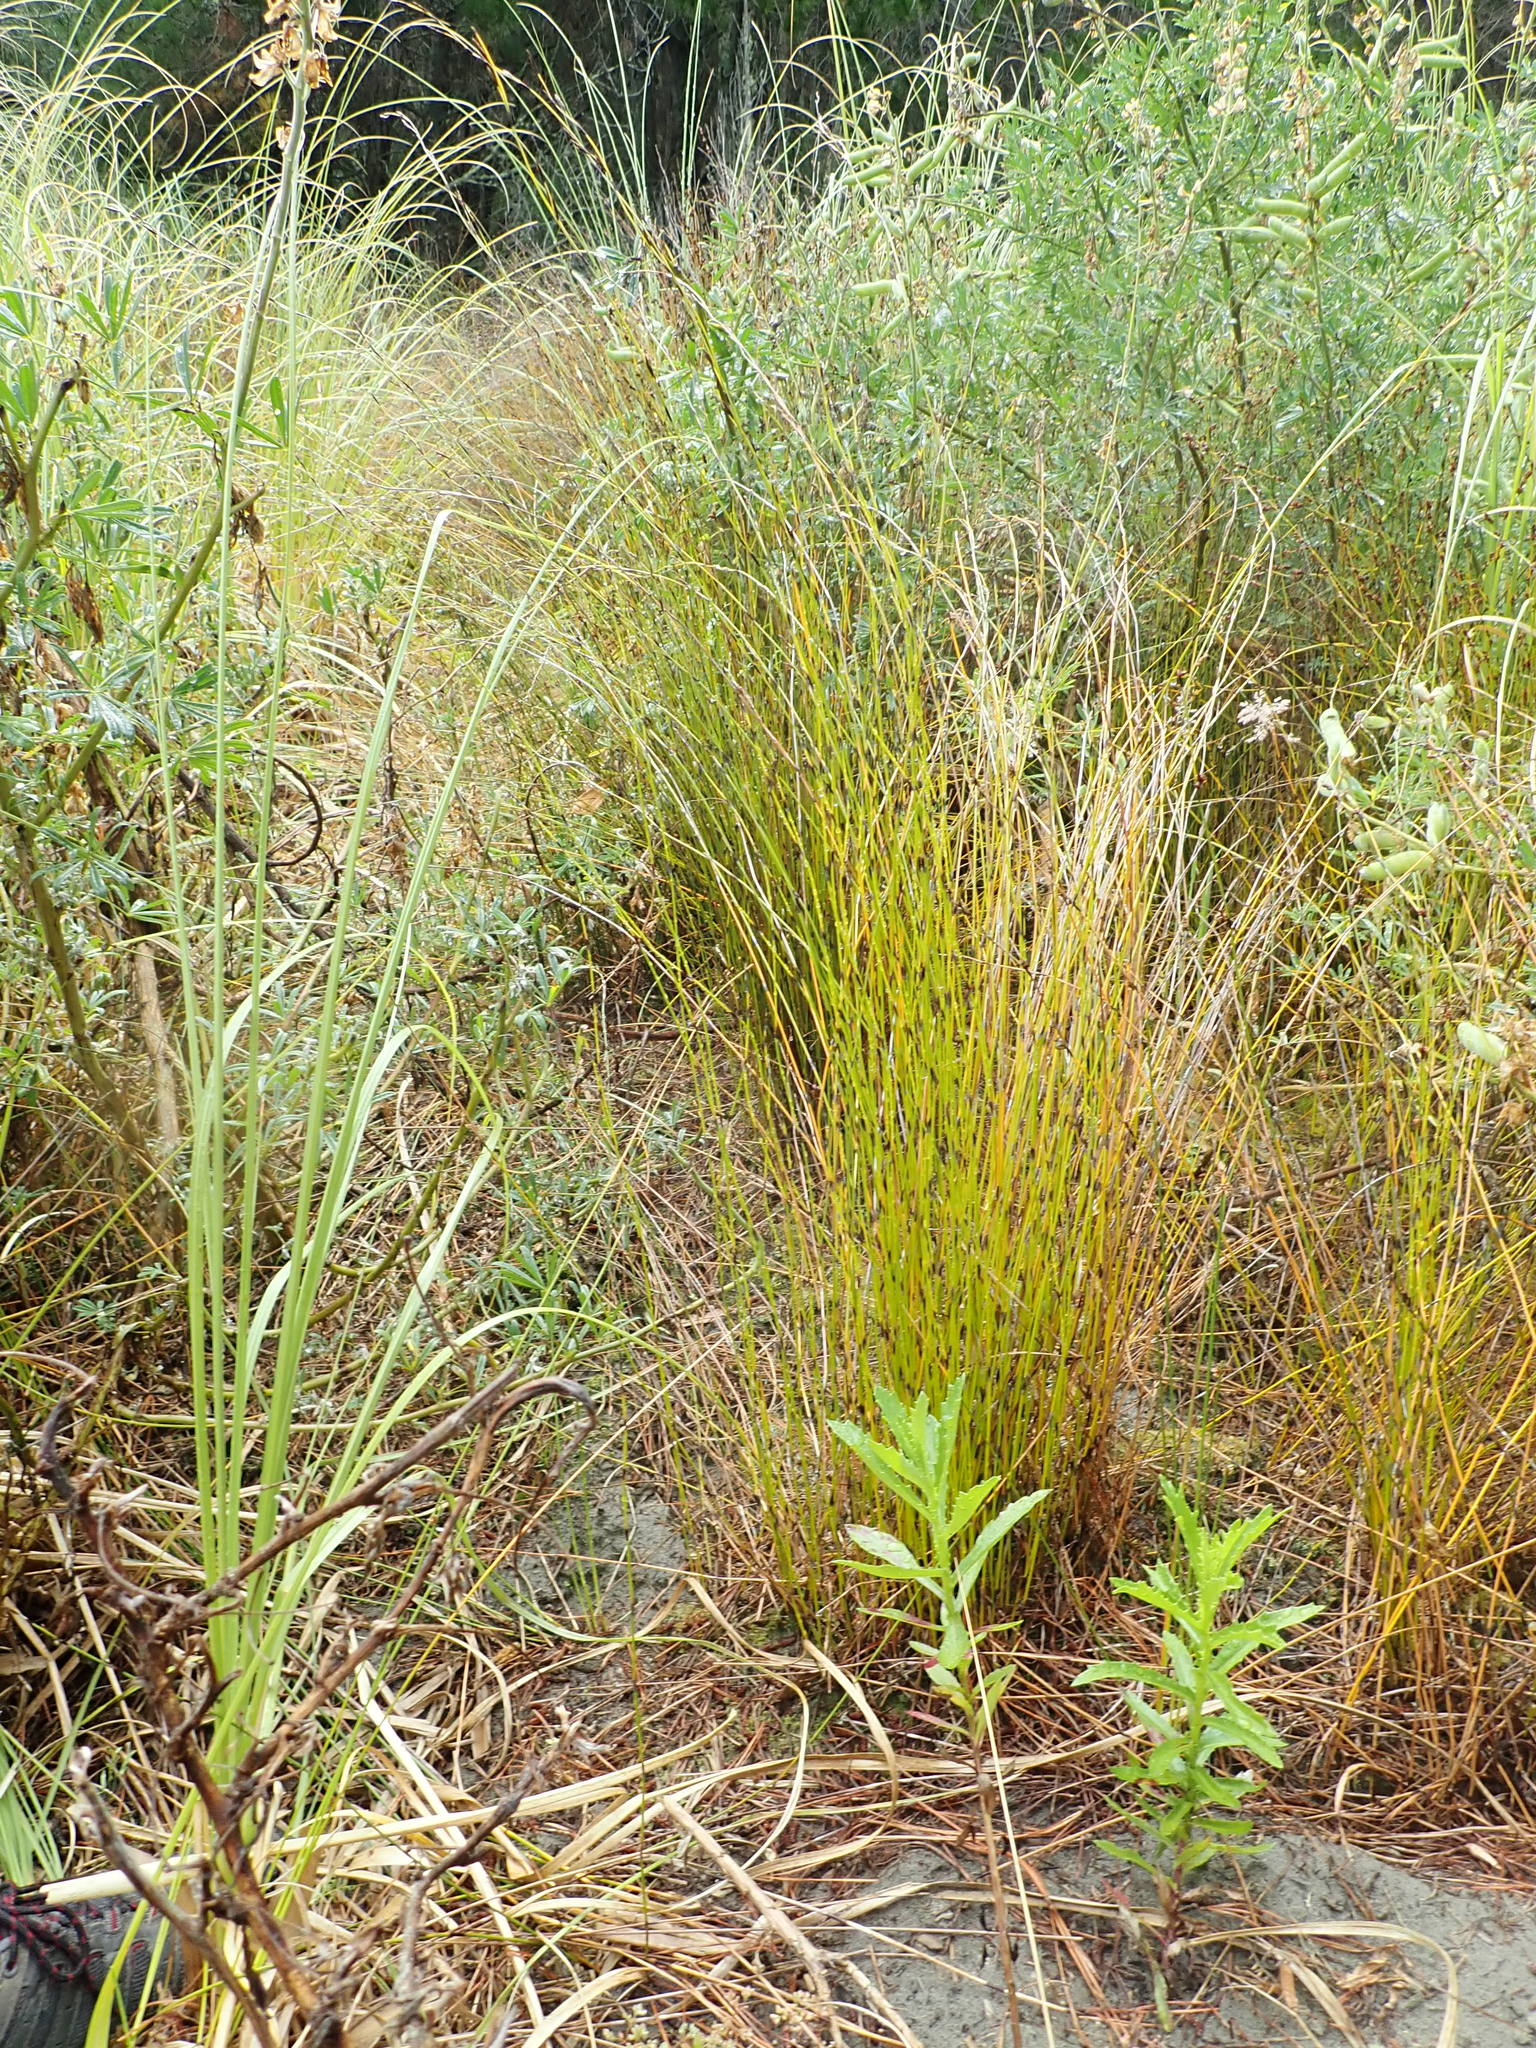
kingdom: Plantae
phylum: Tracheophyta
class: Liliopsida
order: Poales
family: Restionaceae
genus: Apodasmia
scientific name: Apodasmia similis
